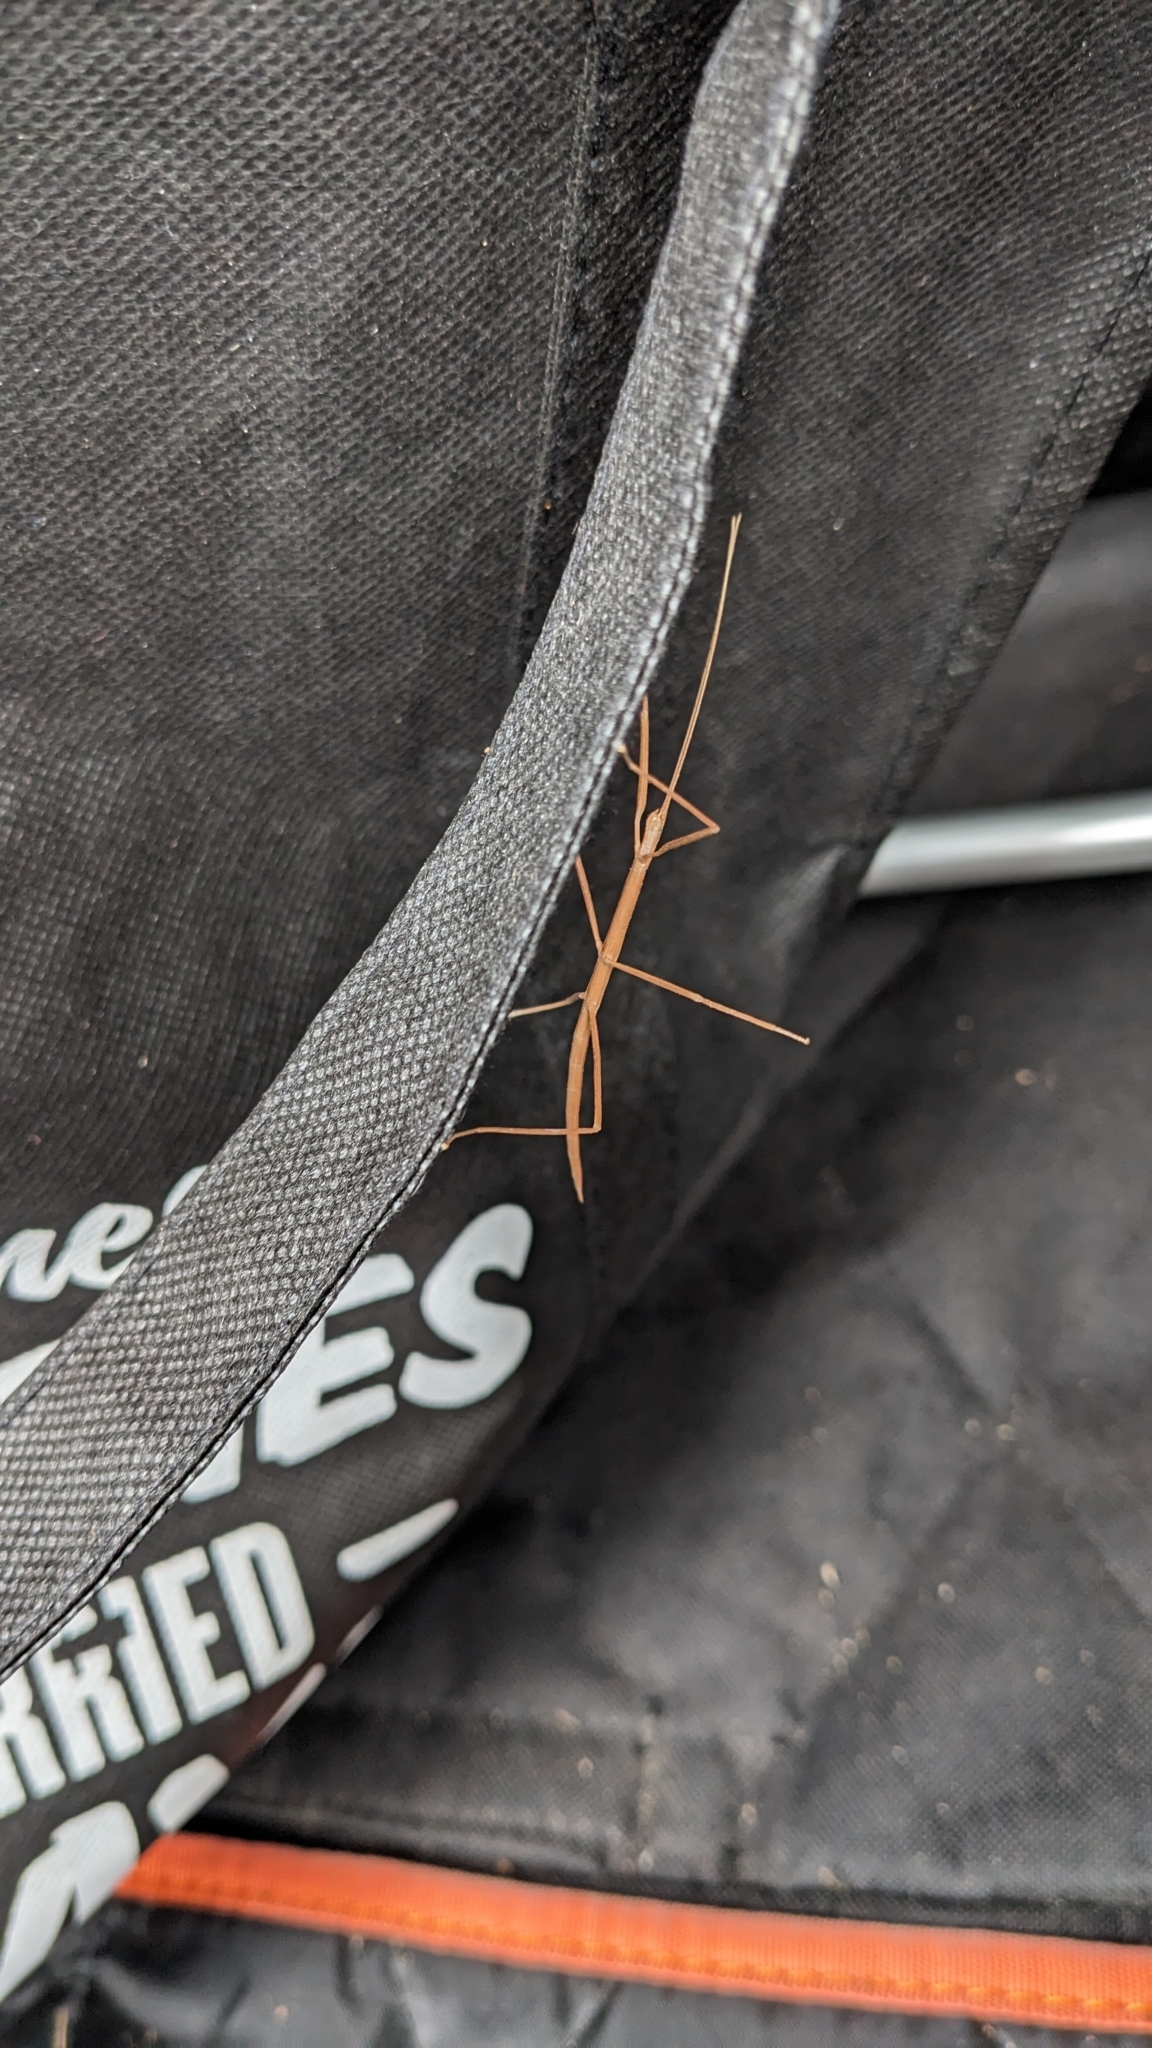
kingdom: Animalia
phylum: Arthropoda
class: Insecta
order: Phasmida
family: Lonchodidae
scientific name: Lonchodidae
